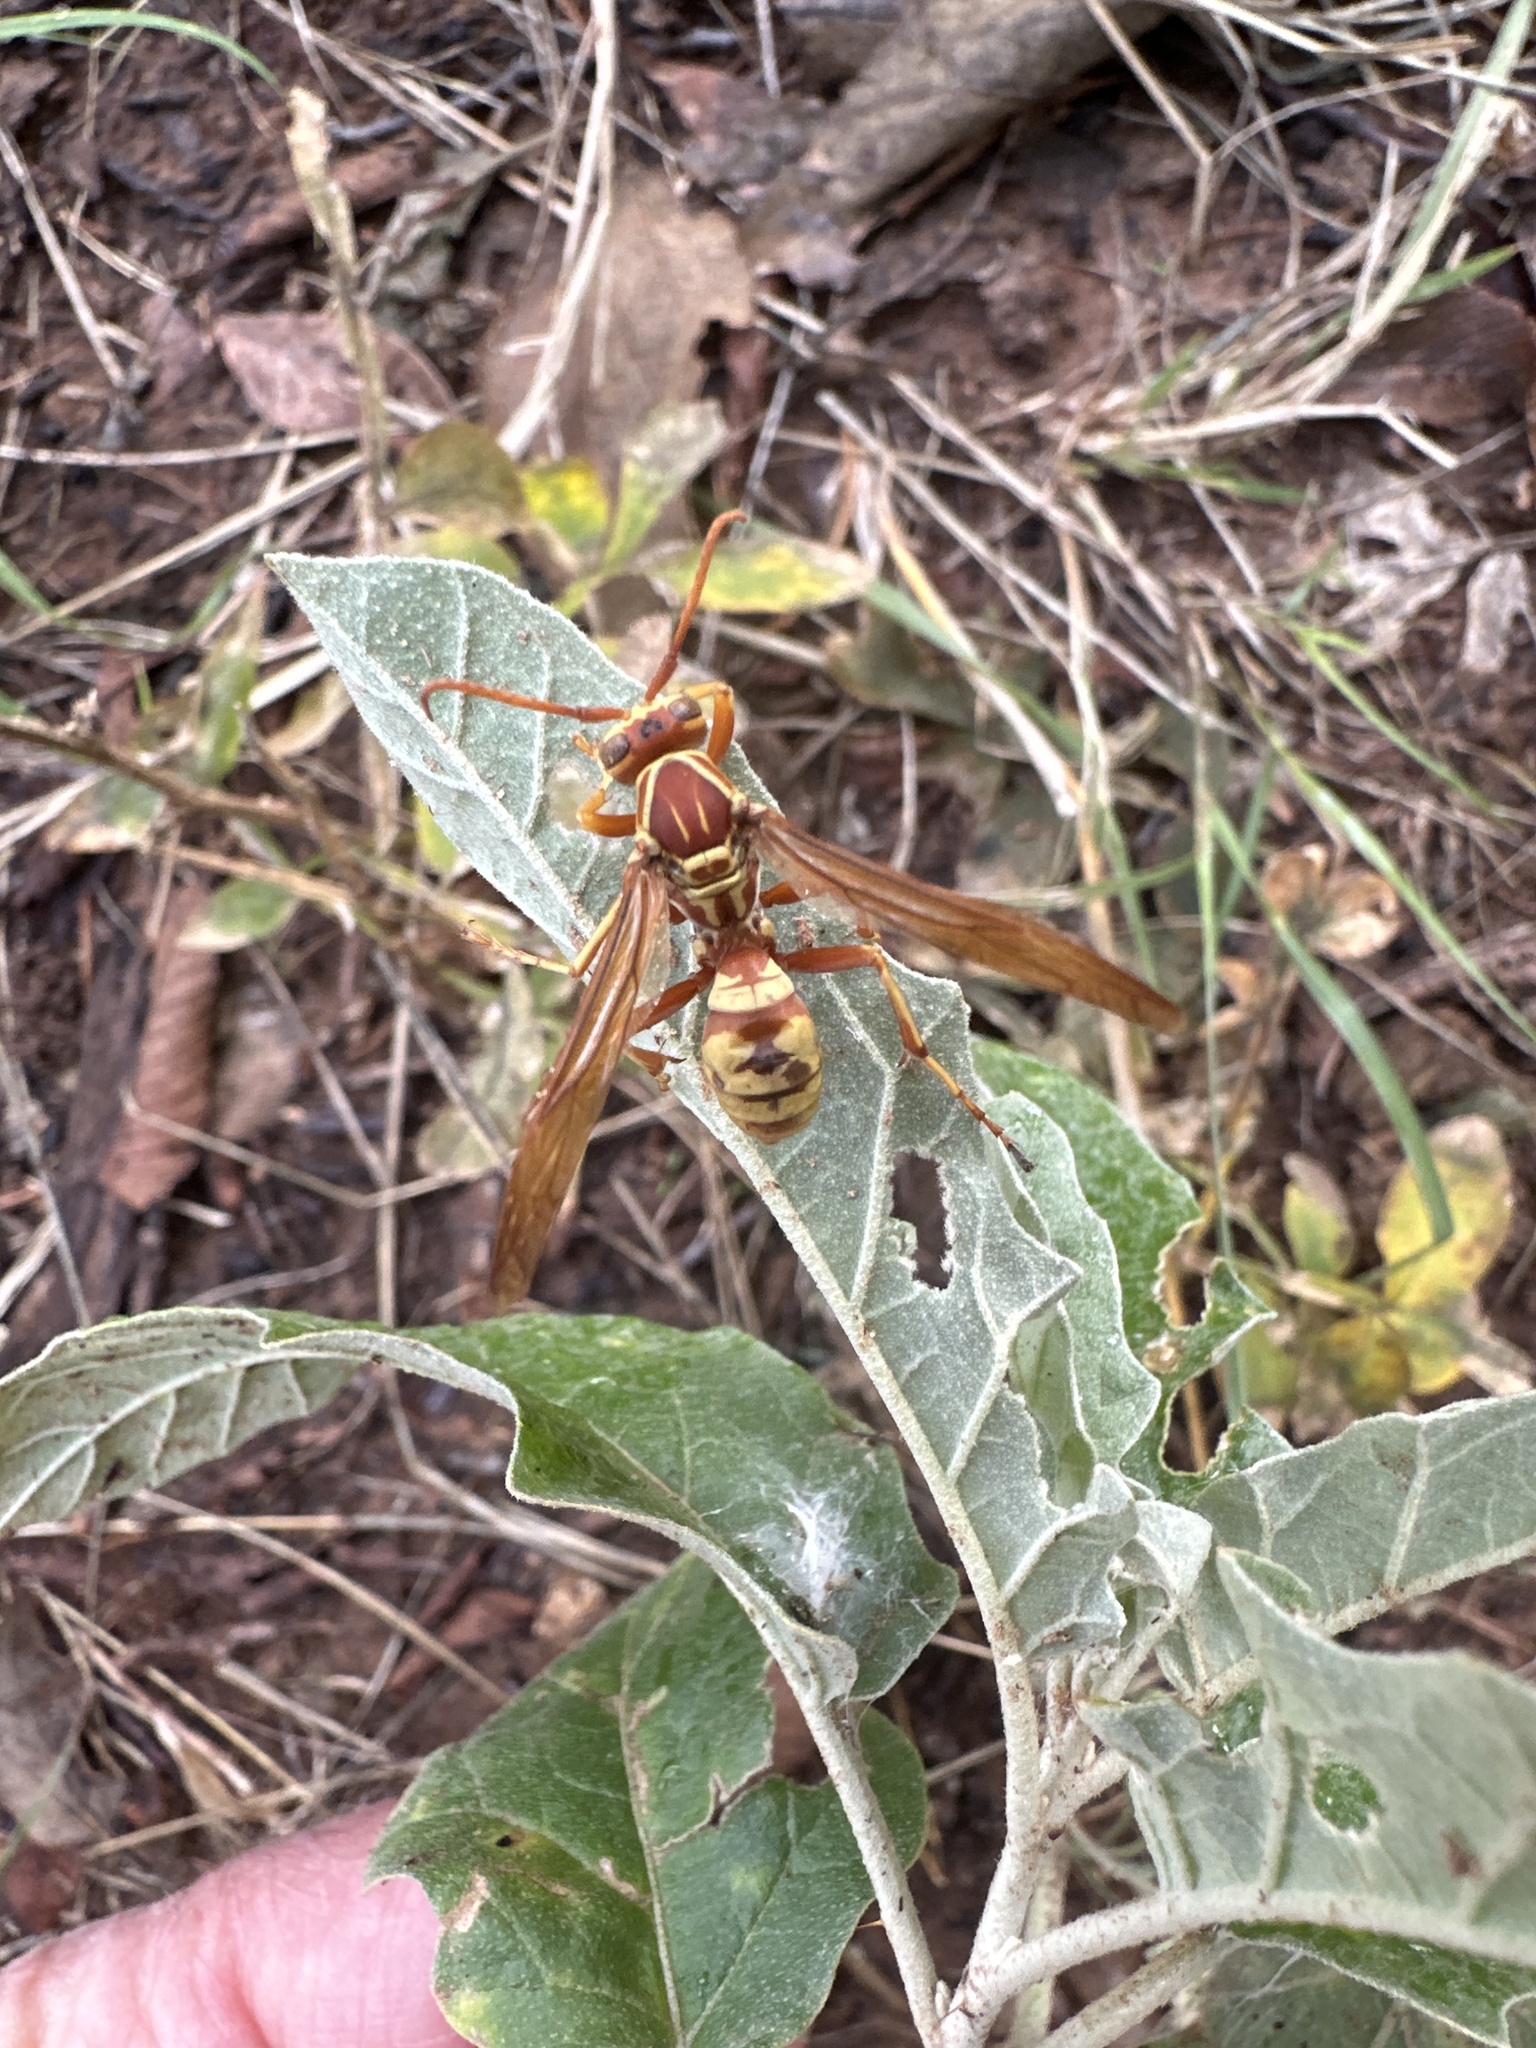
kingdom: Animalia
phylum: Arthropoda
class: Insecta
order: Hymenoptera
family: Eumenidae
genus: Polistes
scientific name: Polistes apachus
